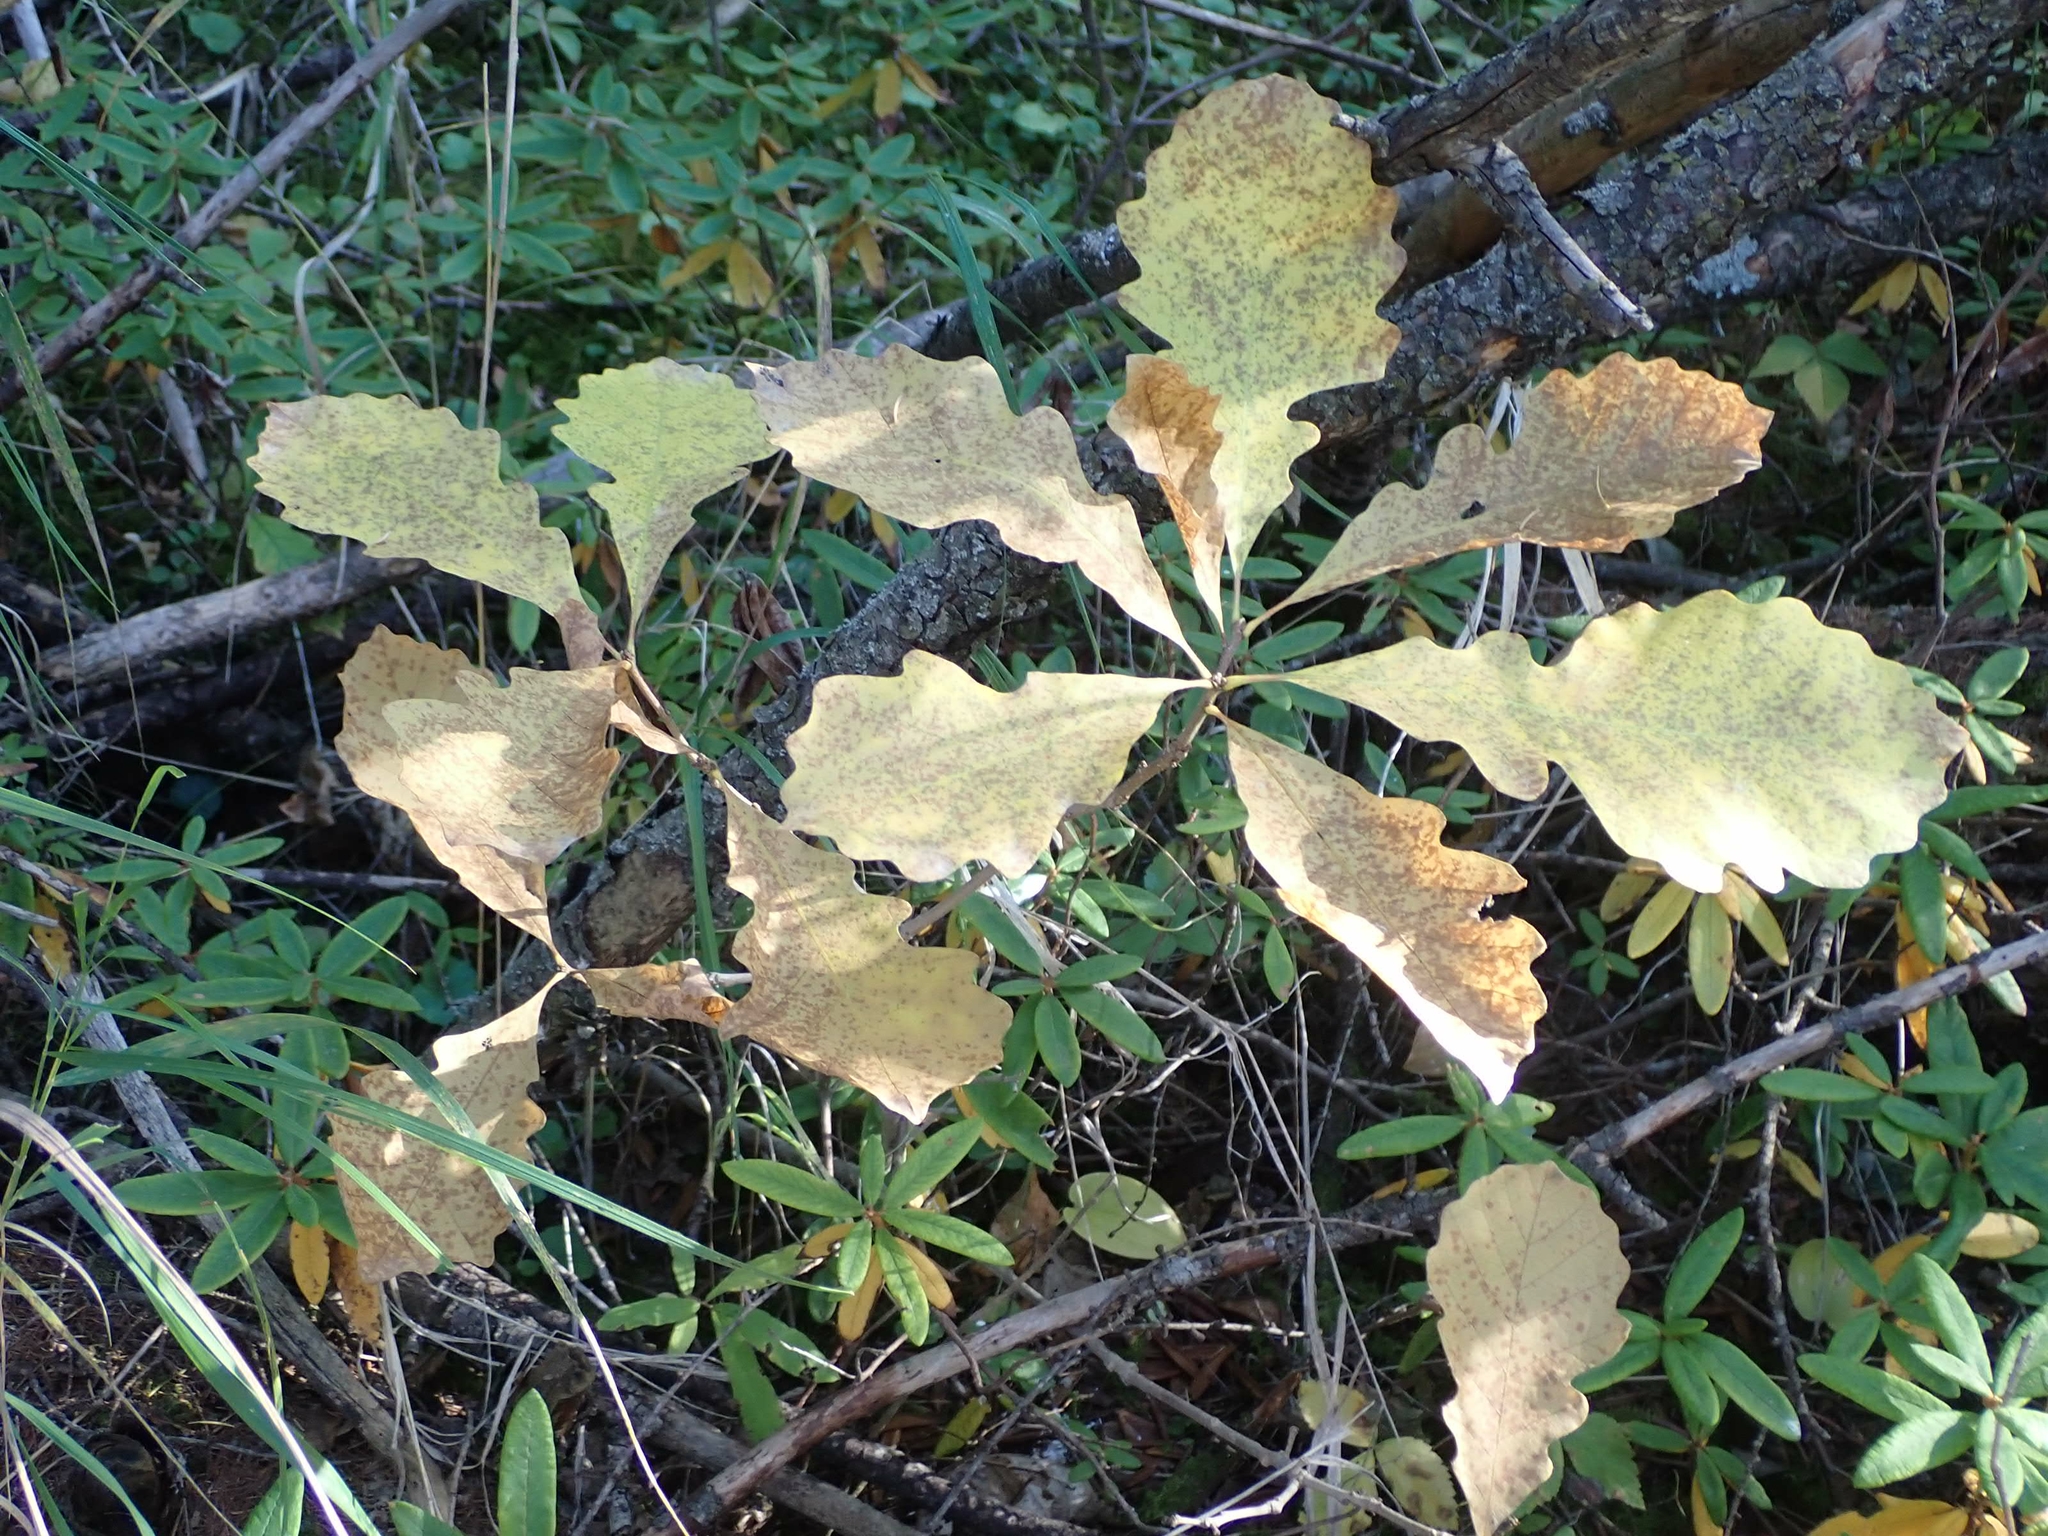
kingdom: Plantae
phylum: Tracheophyta
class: Magnoliopsida
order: Fagales
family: Fagaceae
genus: Quercus
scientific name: Quercus macrocarpa
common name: Bur oak
